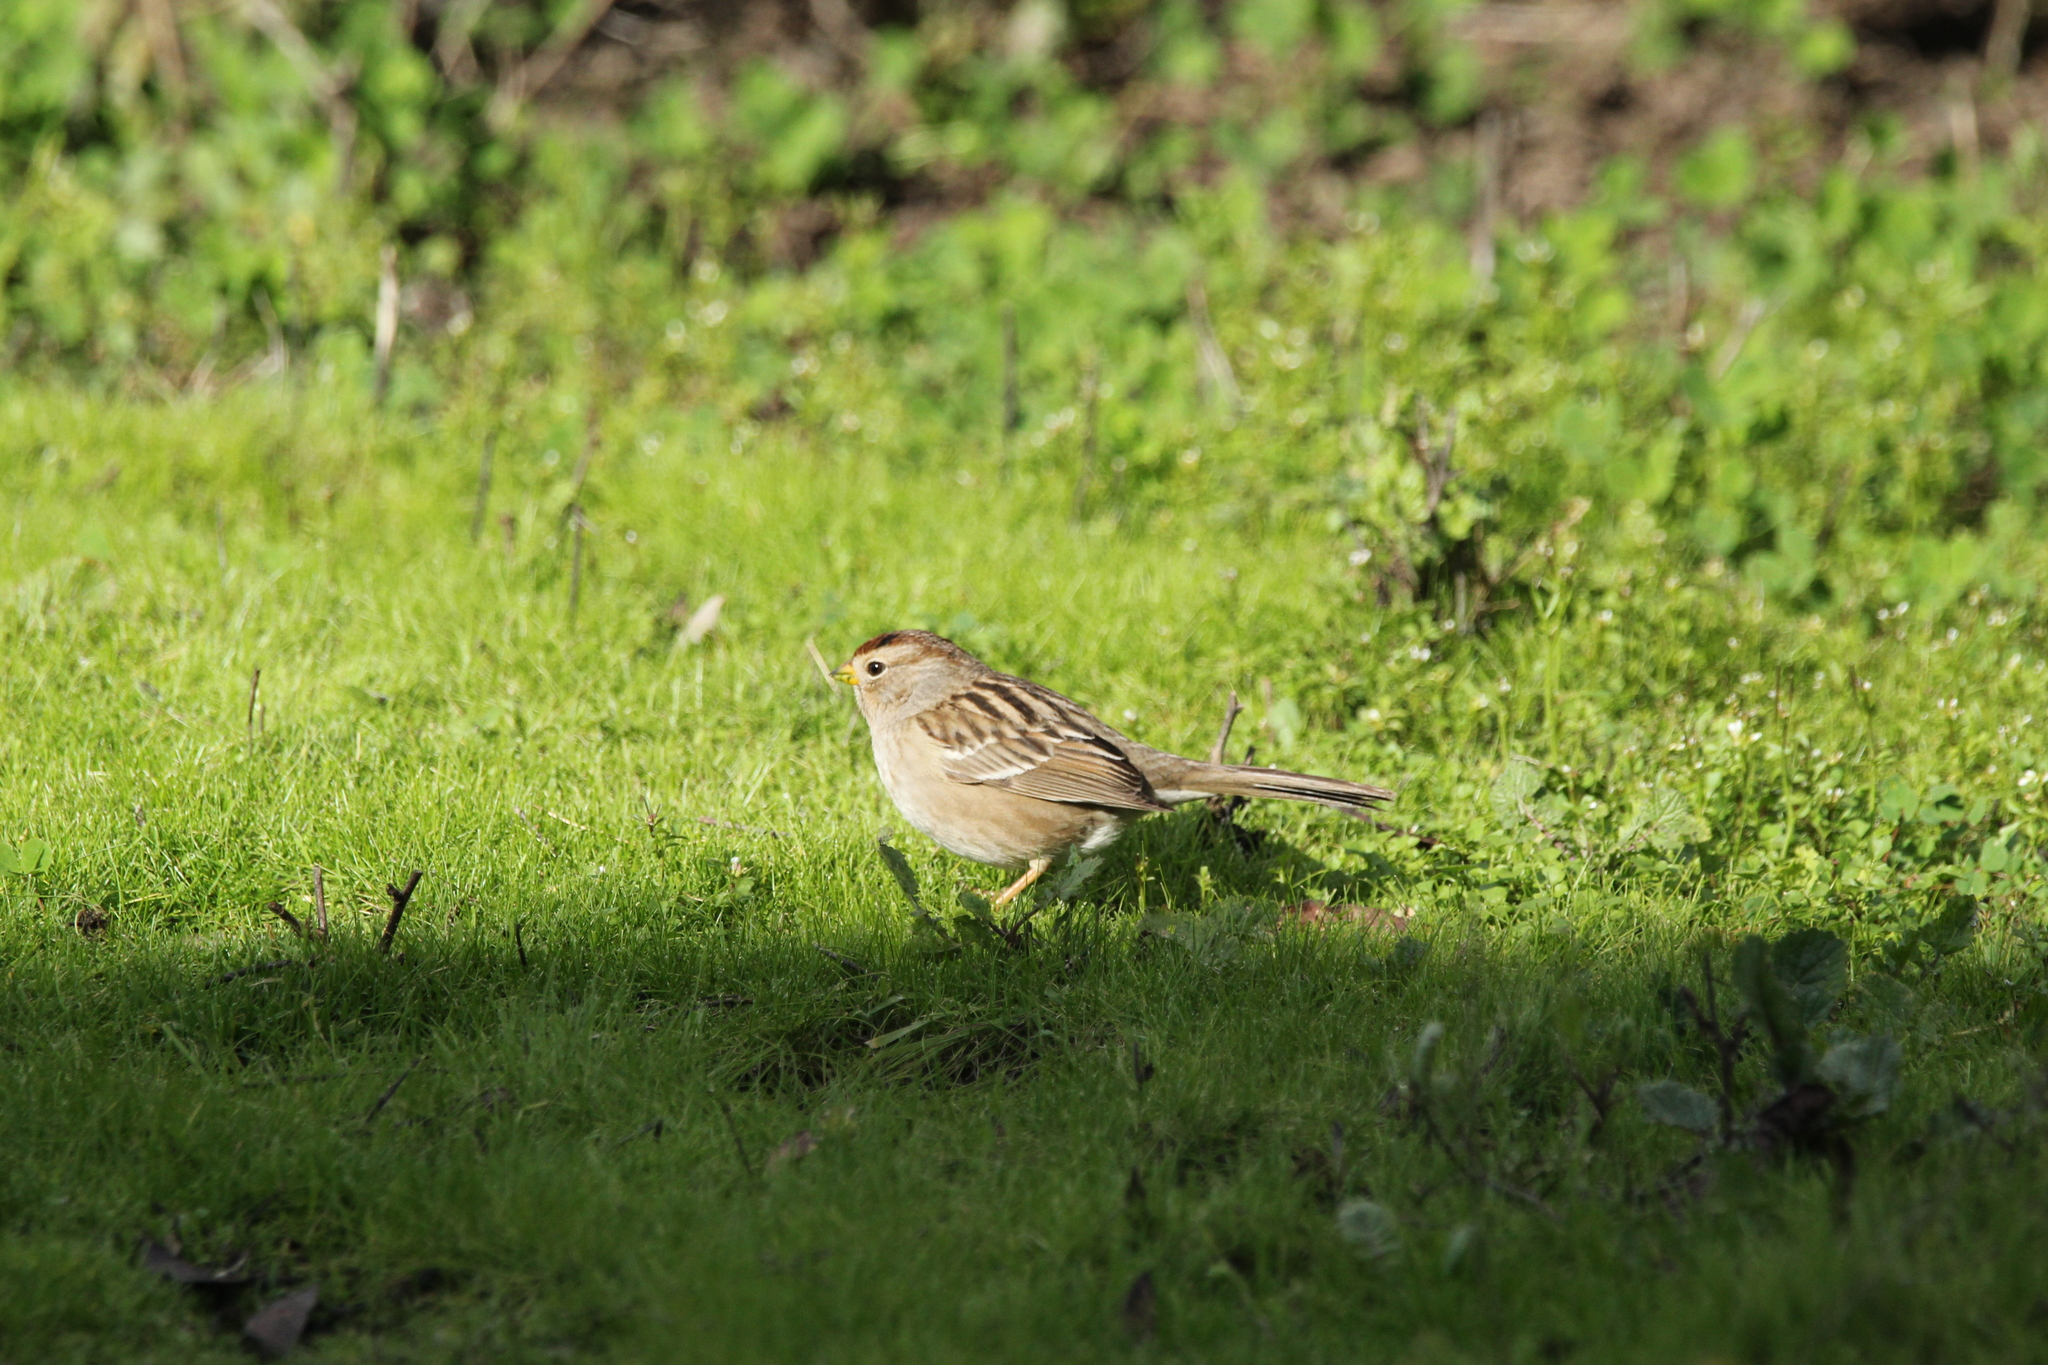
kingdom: Animalia
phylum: Chordata
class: Aves
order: Passeriformes
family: Passerellidae
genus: Zonotrichia
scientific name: Zonotrichia leucophrys
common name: White-crowned sparrow
